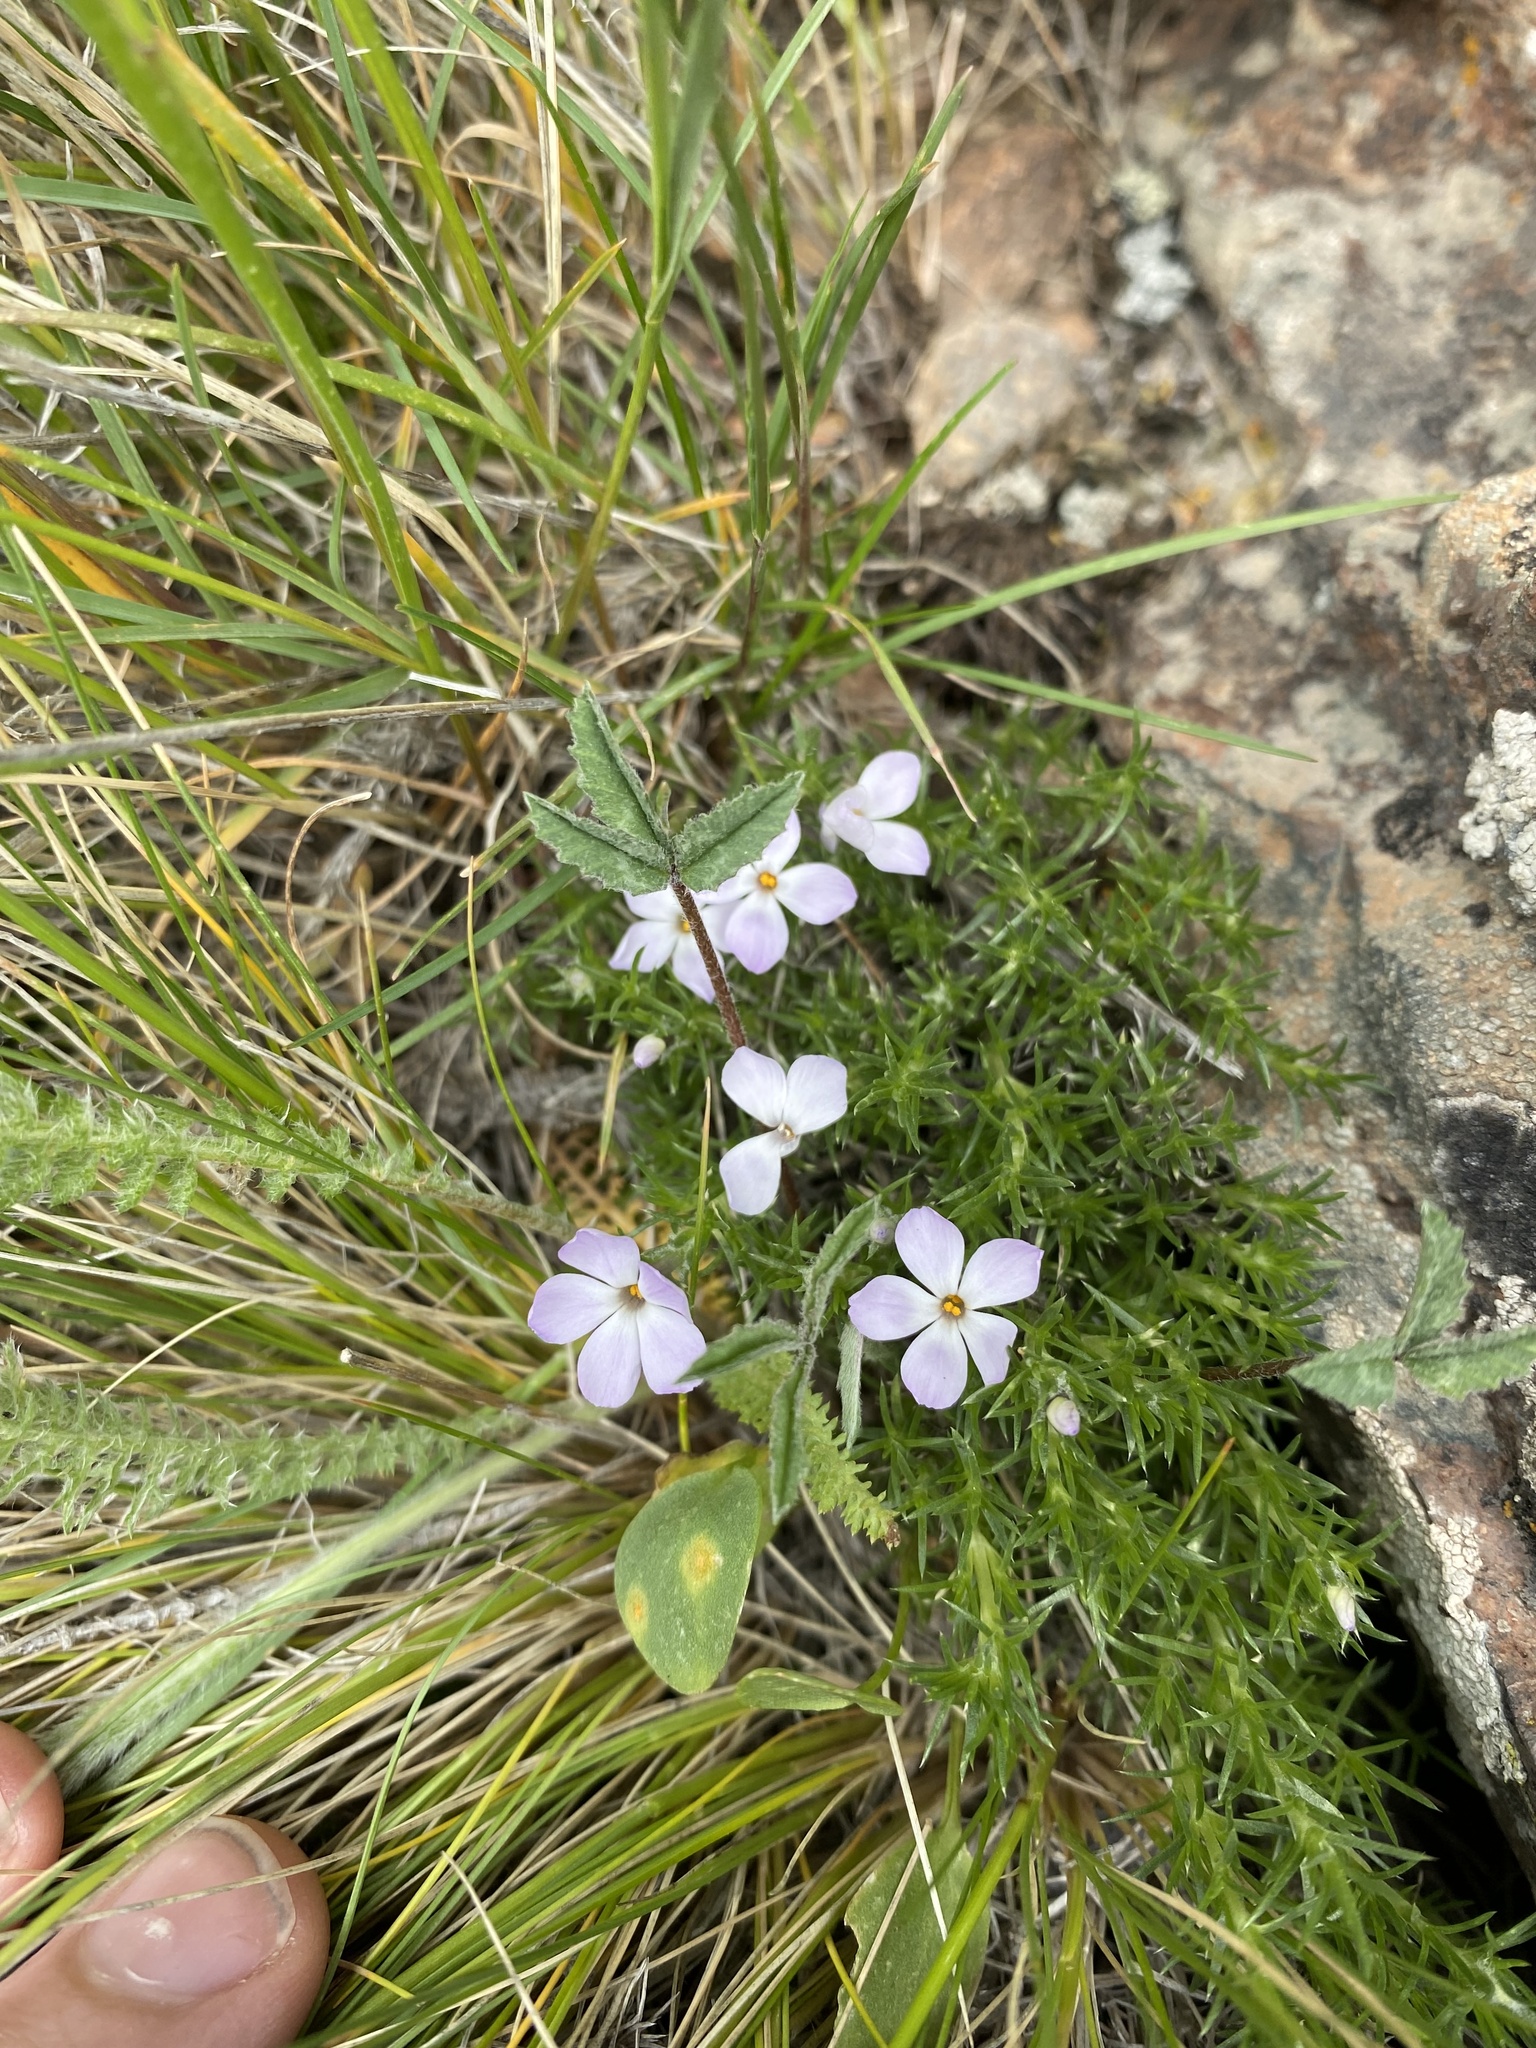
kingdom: Plantae
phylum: Tracheophyta
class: Magnoliopsida
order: Ericales
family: Polemoniaceae
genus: Phlox
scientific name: Phlox hoodii
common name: Moss phlox
